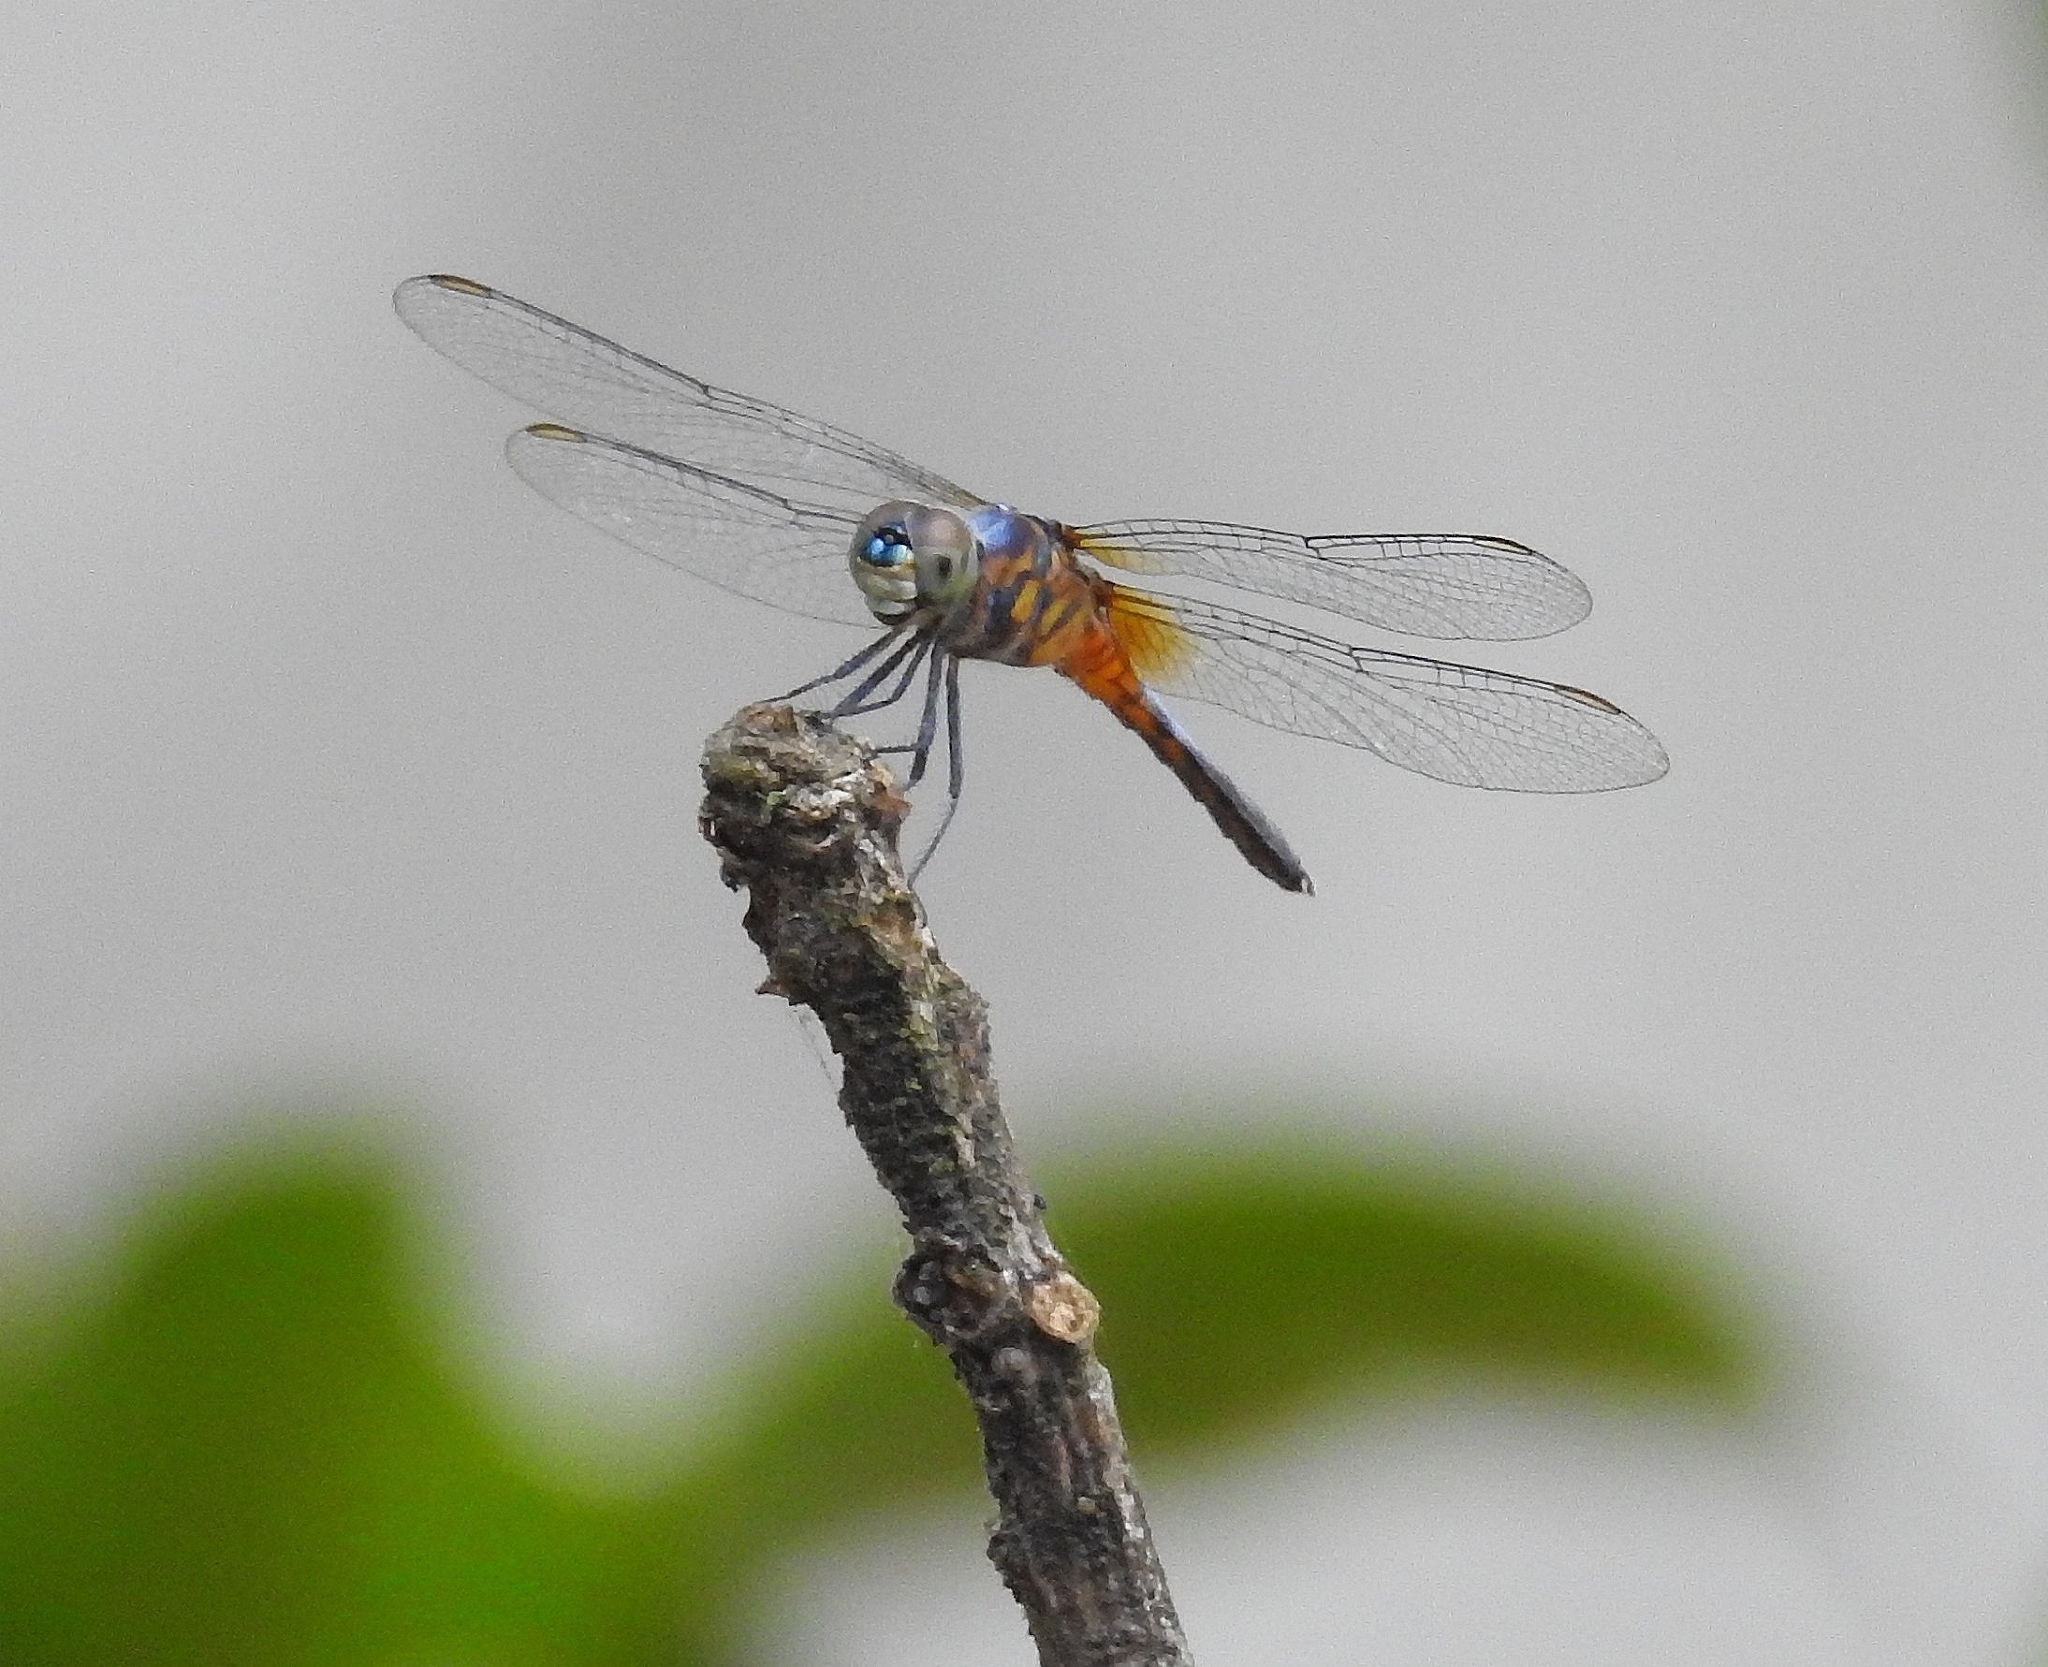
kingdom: Animalia
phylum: Arthropoda
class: Insecta
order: Odonata
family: Libellulidae
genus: Brachydiplax
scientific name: Brachydiplax chalybea
